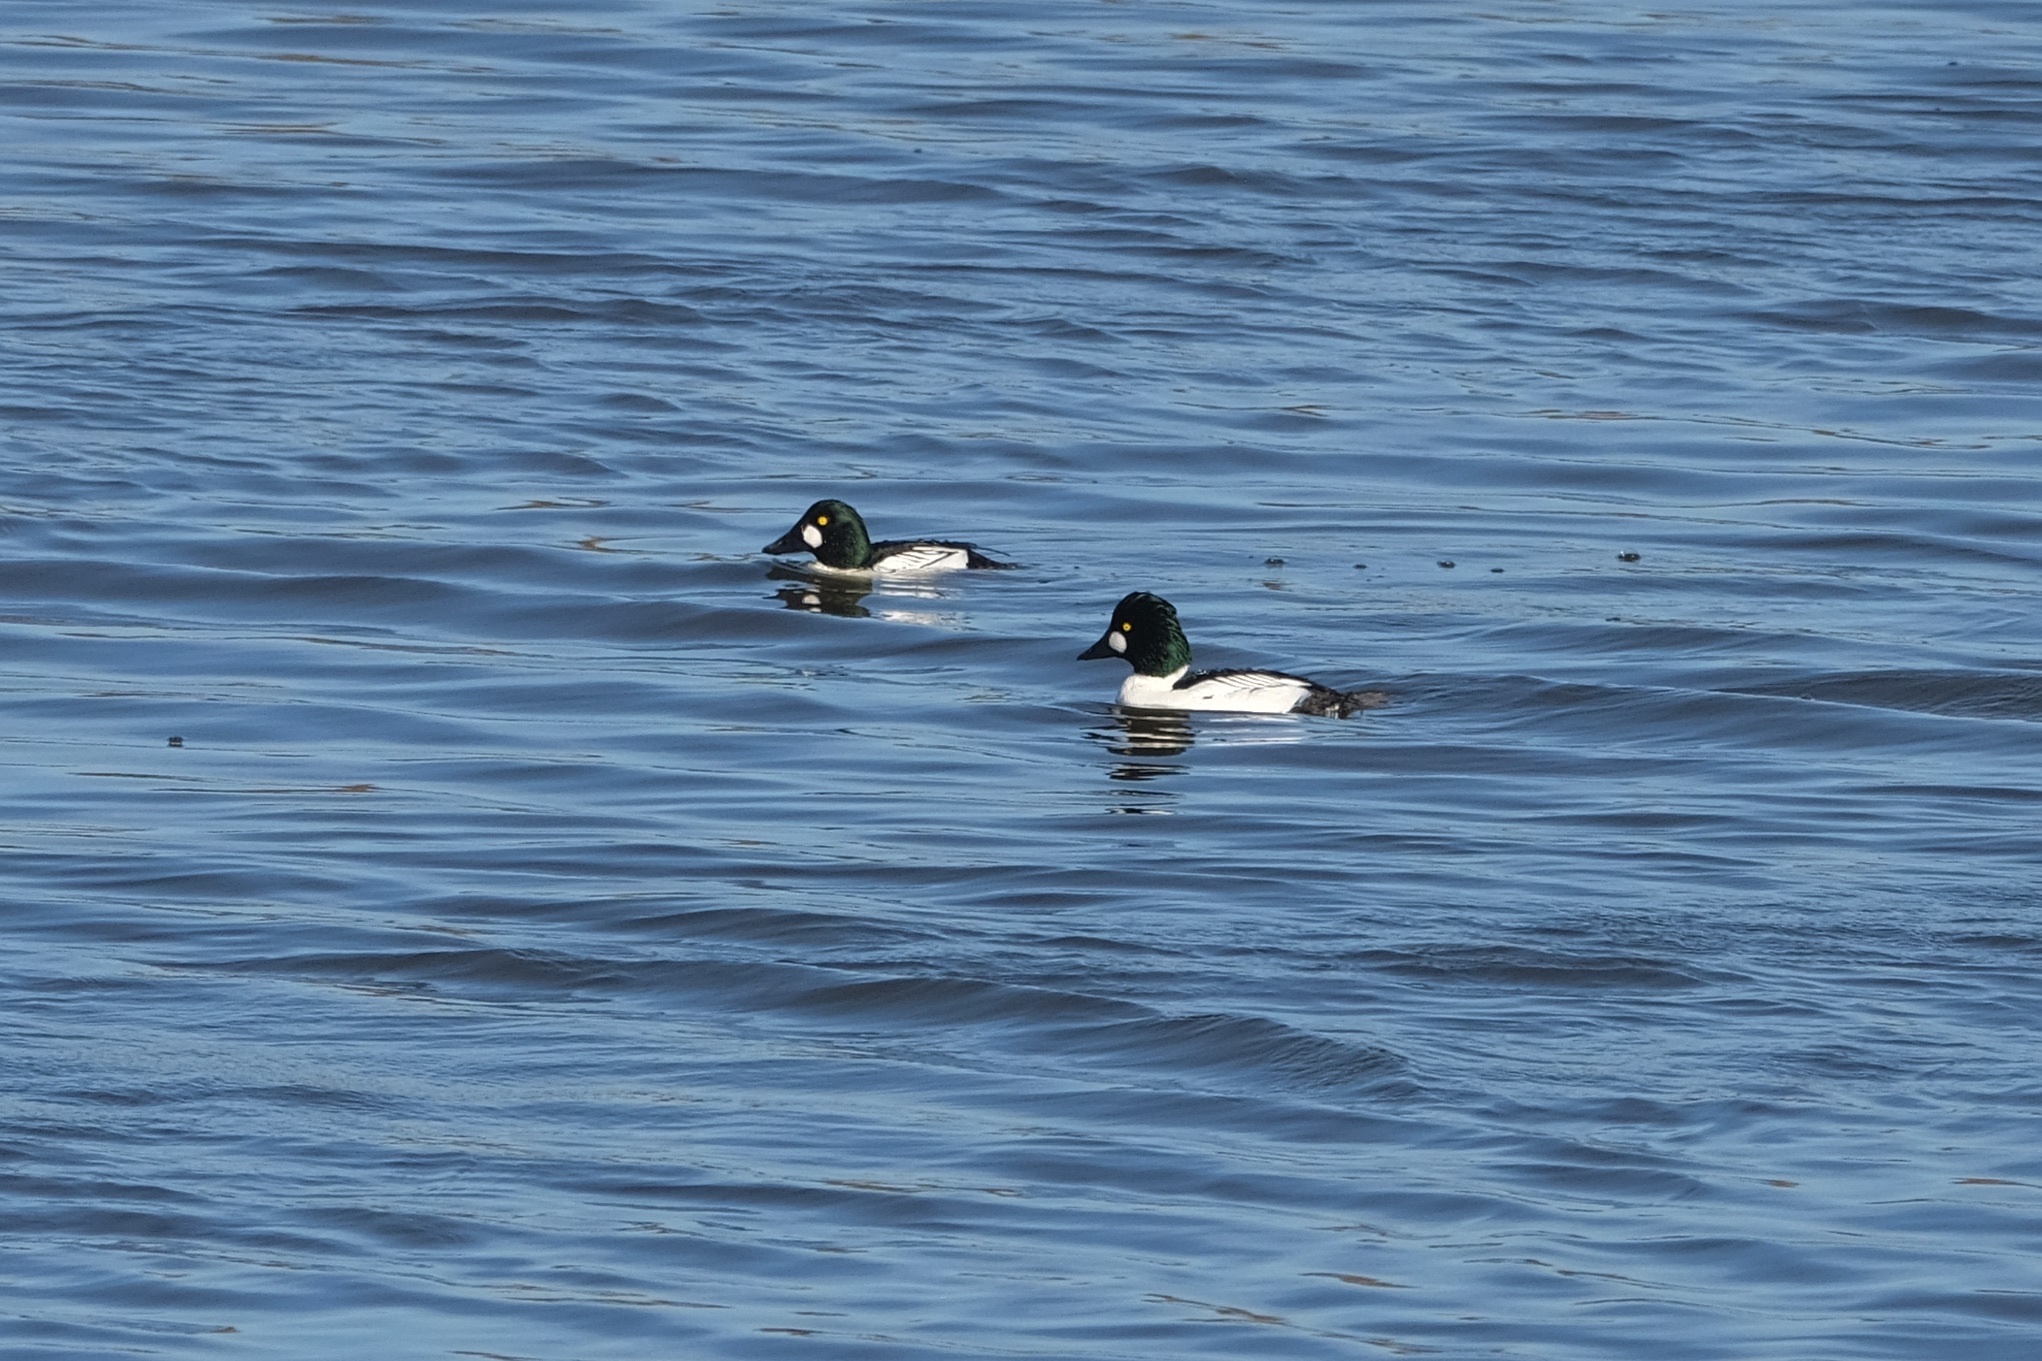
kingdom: Animalia
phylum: Chordata
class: Aves
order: Anseriformes
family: Anatidae
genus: Bucephala
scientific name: Bucephala clangula
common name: Common goldeneye
